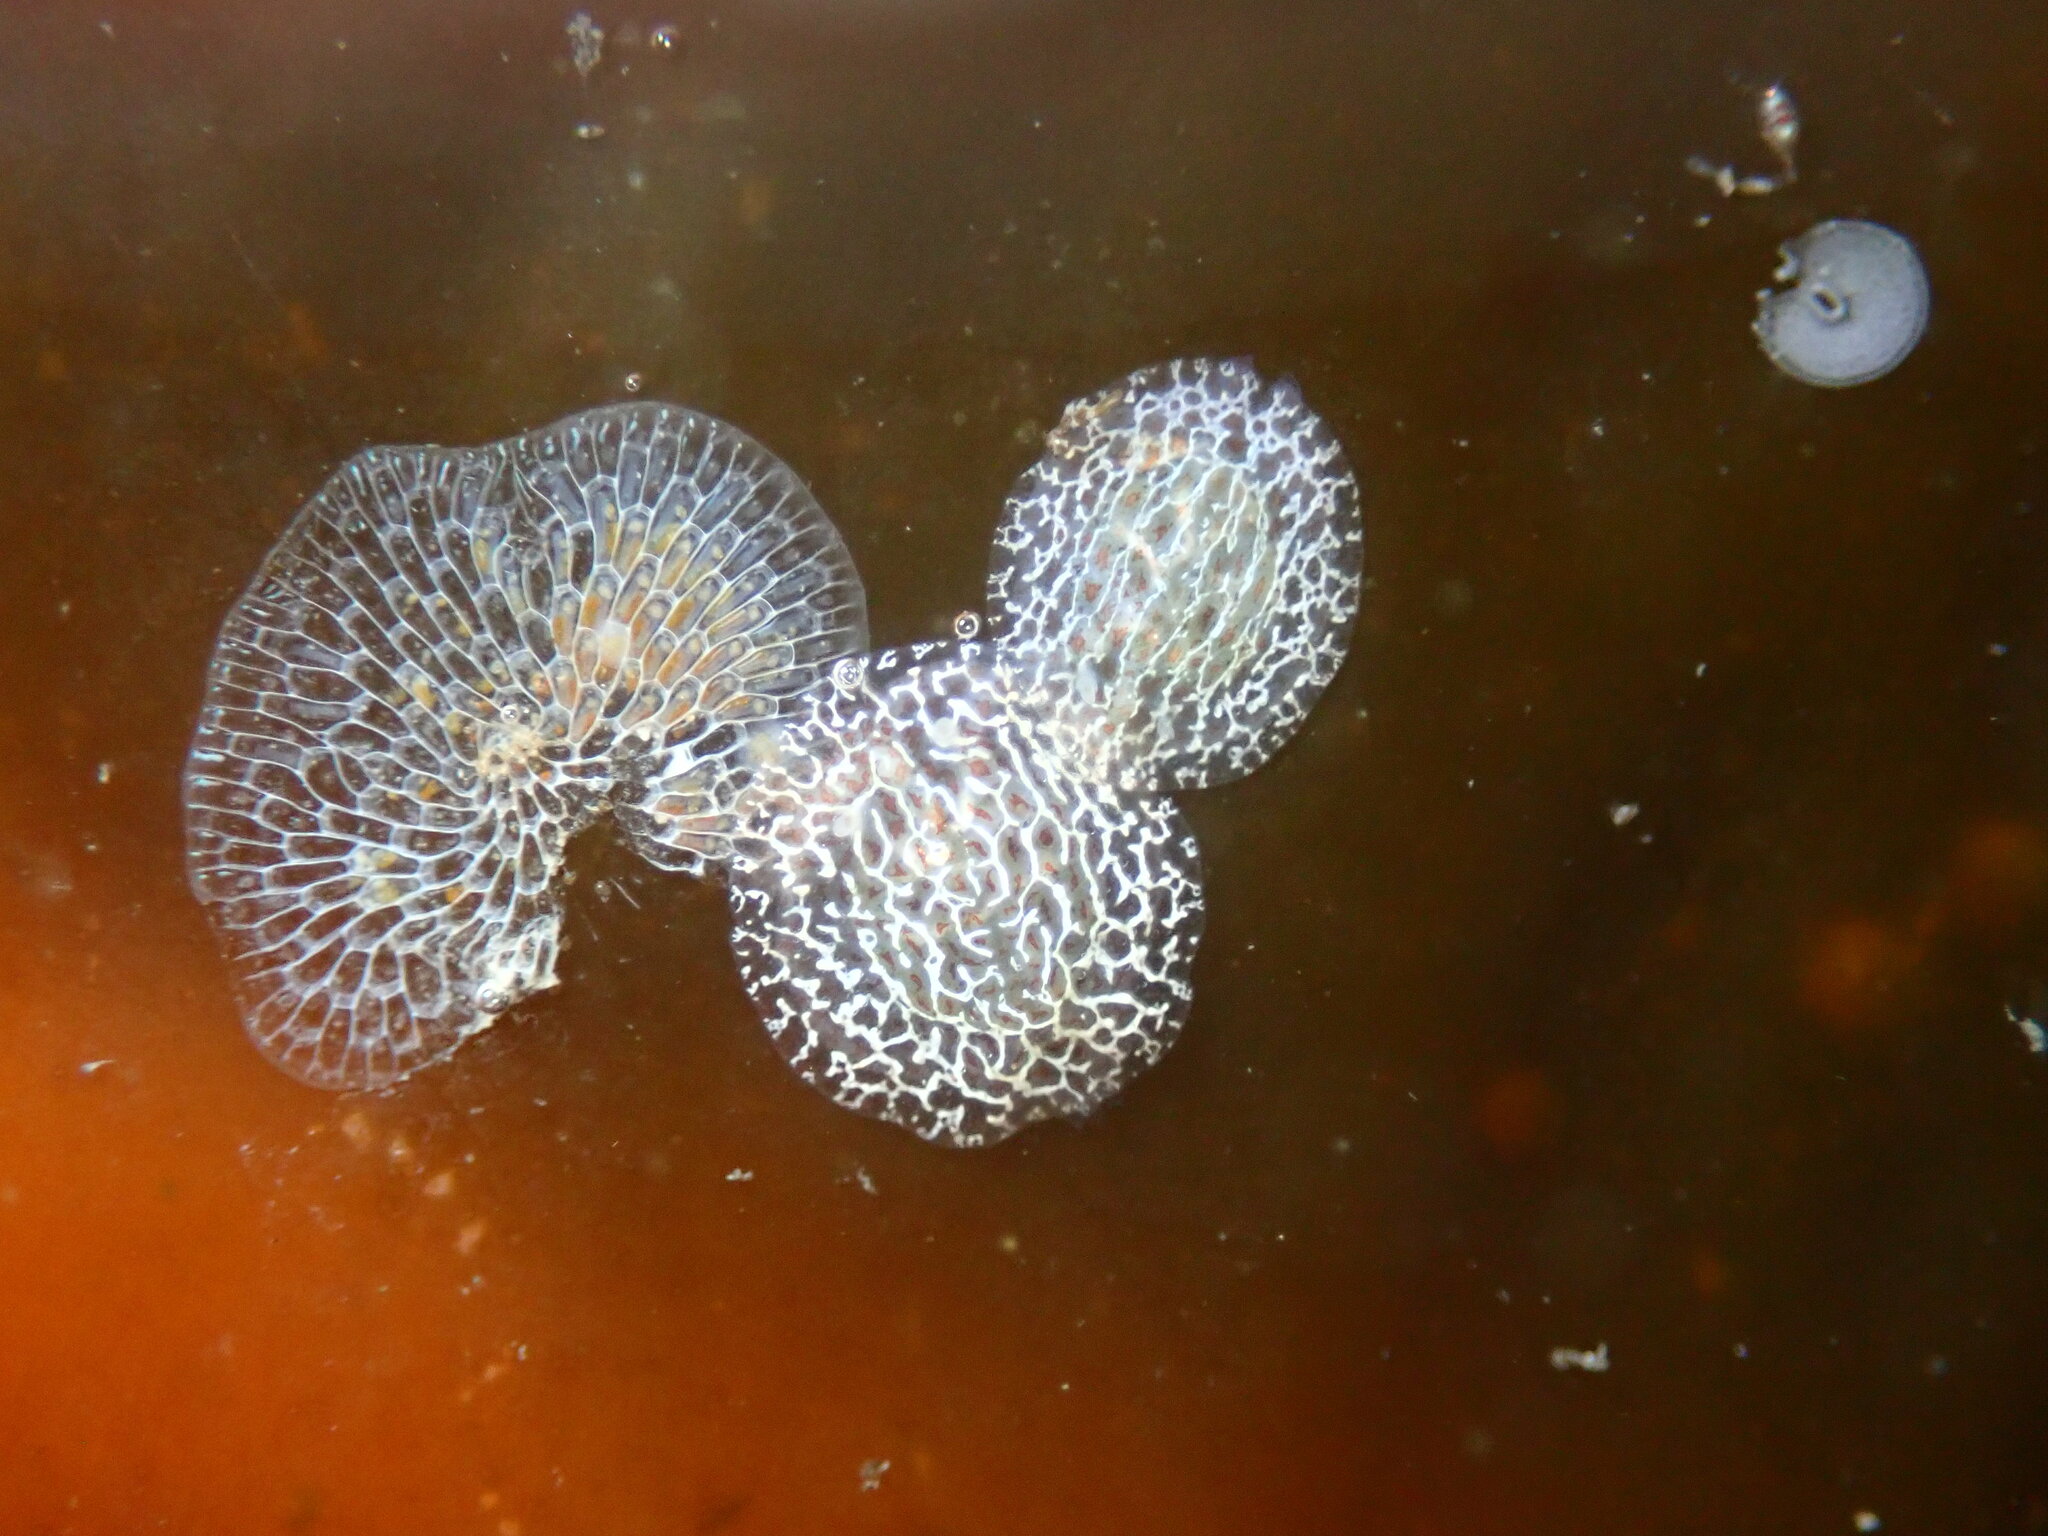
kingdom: Animalia
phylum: Mollusca
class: Gastropoda
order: Nudibranchia
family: Corambidae
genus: Corambe
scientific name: Corambe pacifica
